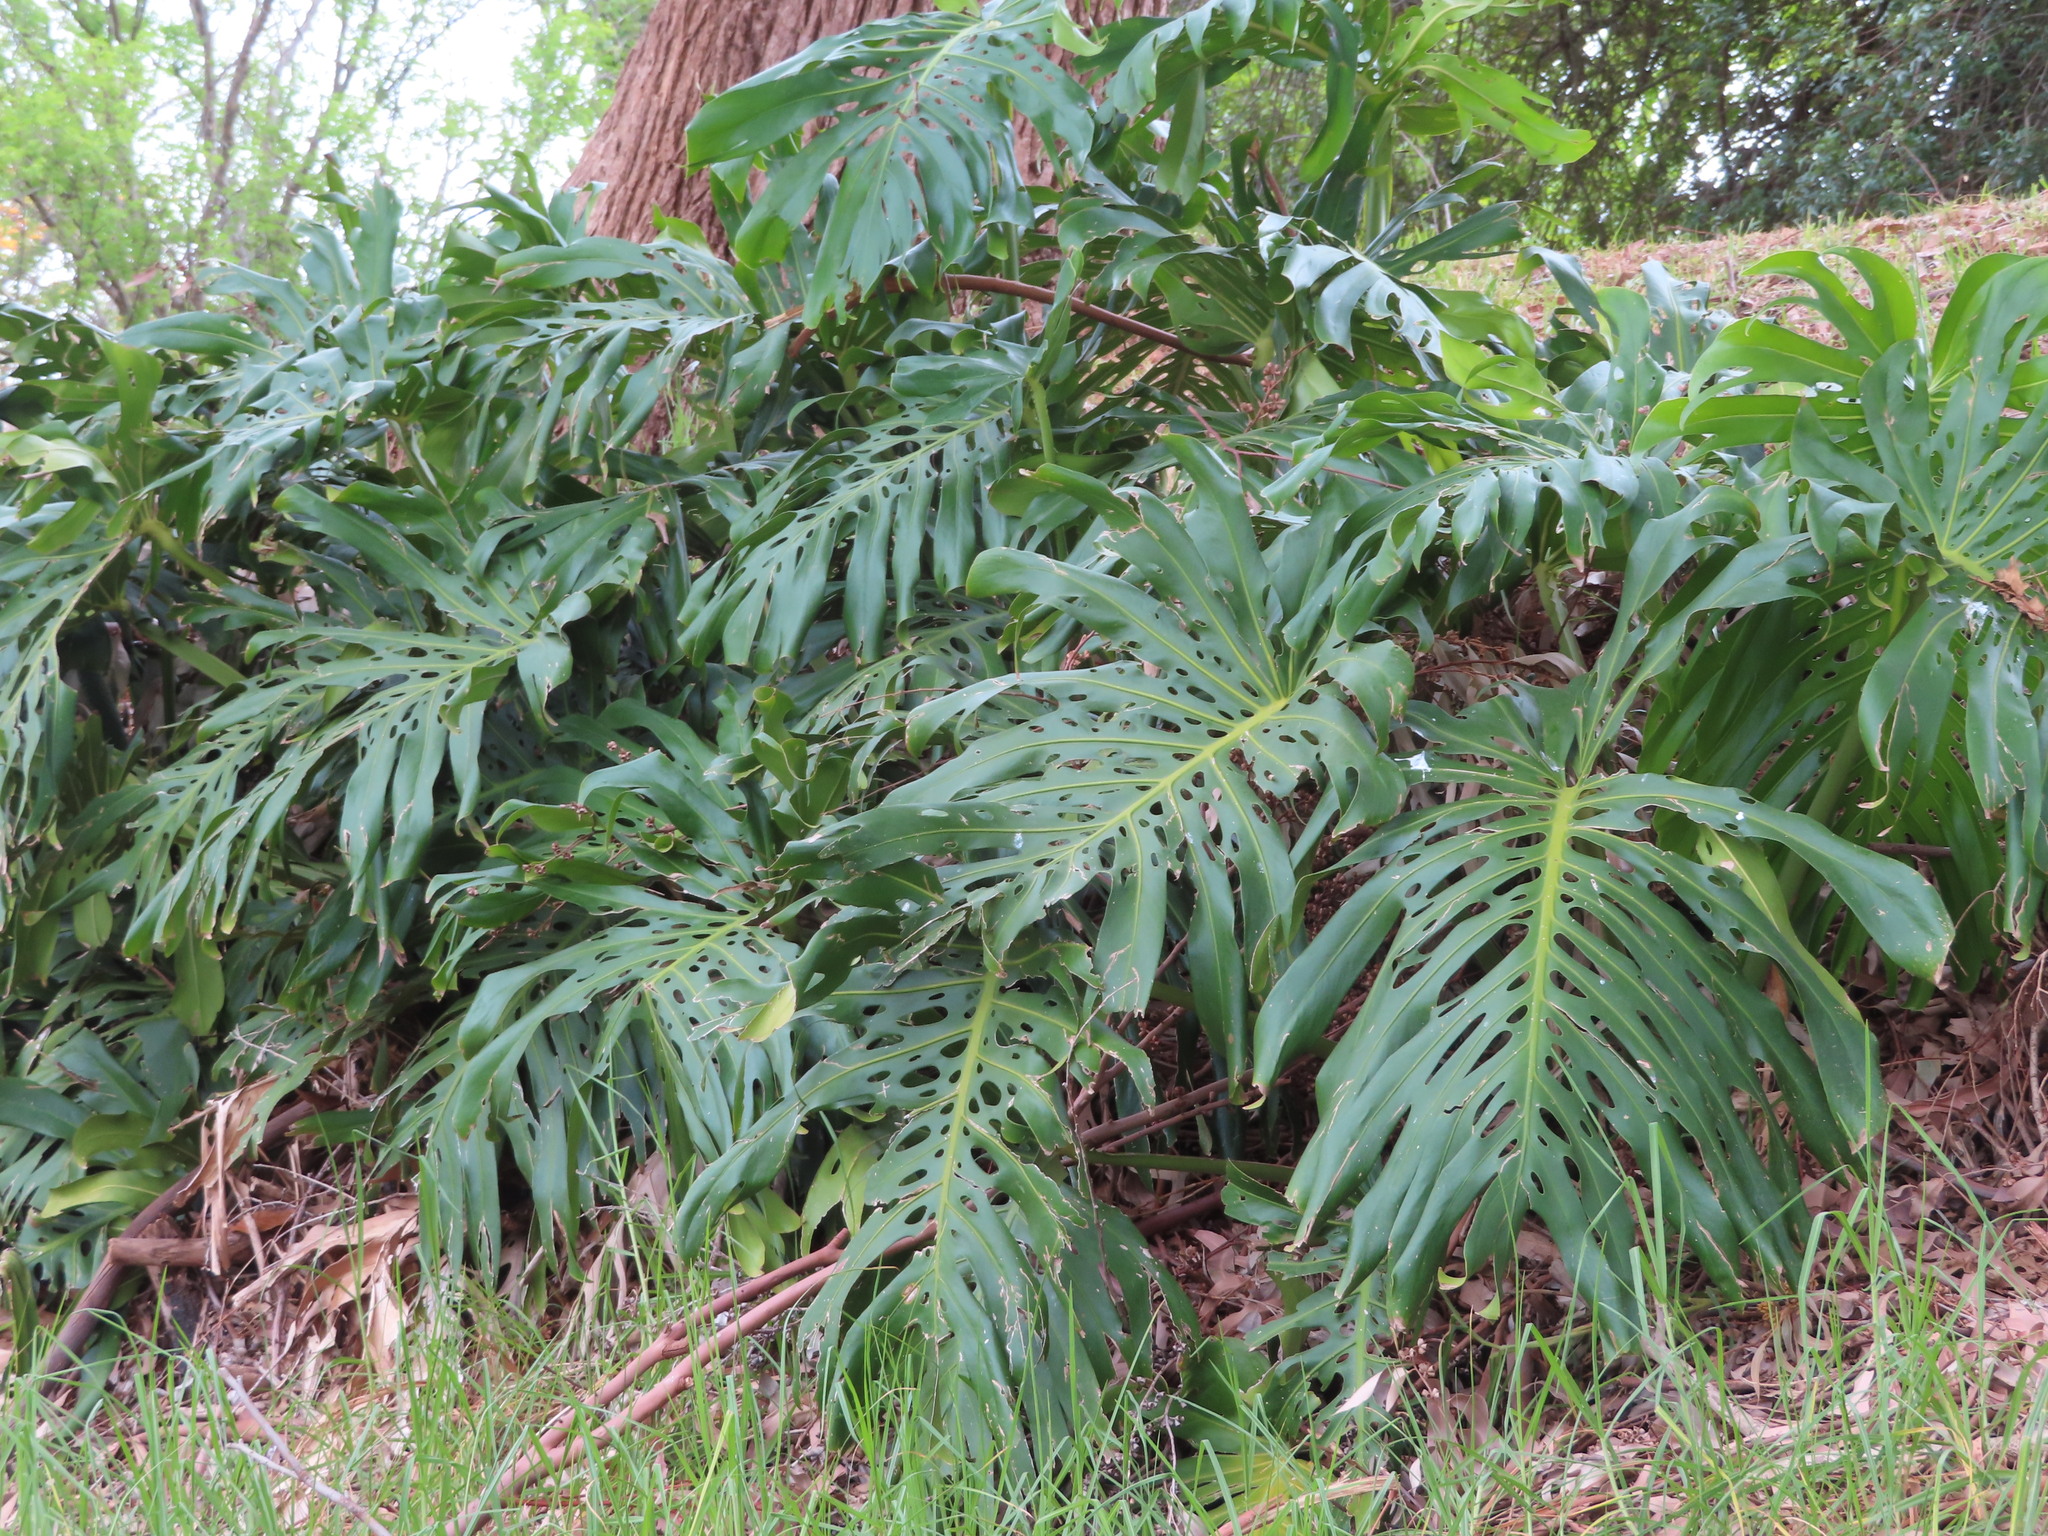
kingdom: Plantae
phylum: Tracheophyta
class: Liliopsida
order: Alismatales
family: Araceae
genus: Monstera
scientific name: Monstera deliciosa
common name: Cut-leaf-philodendron
